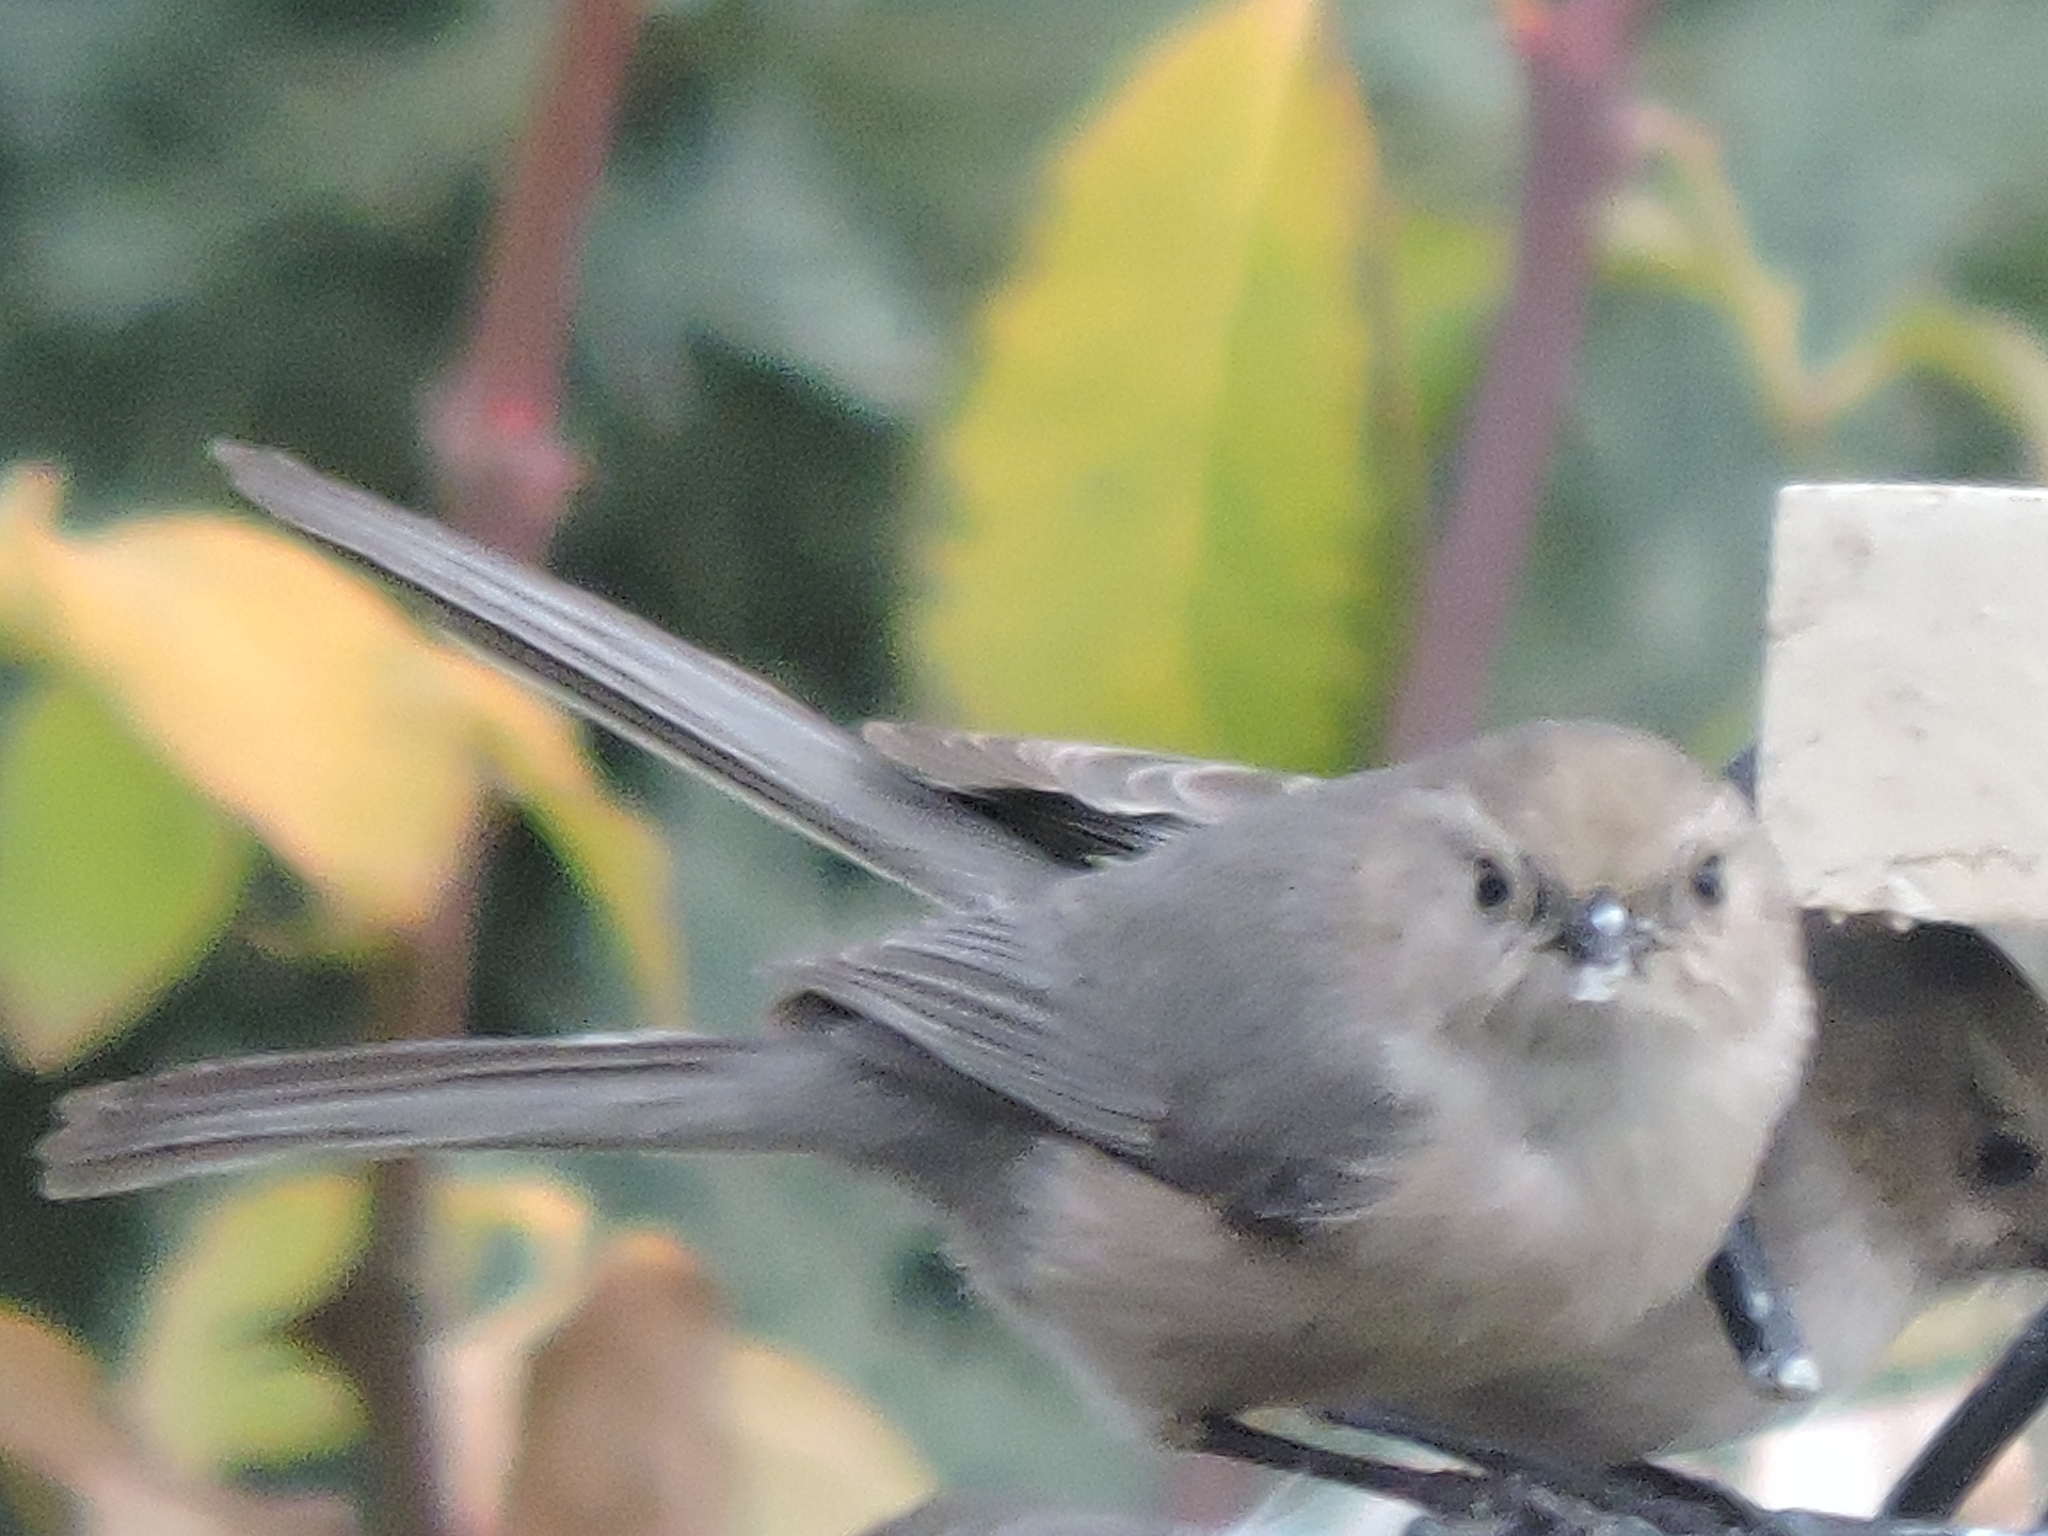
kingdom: Animalia
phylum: Chordata
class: Aves
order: Passeriformes
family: Aegithalidae
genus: Psaltriparus
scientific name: Psaltriparus minimus
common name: American bushtit
